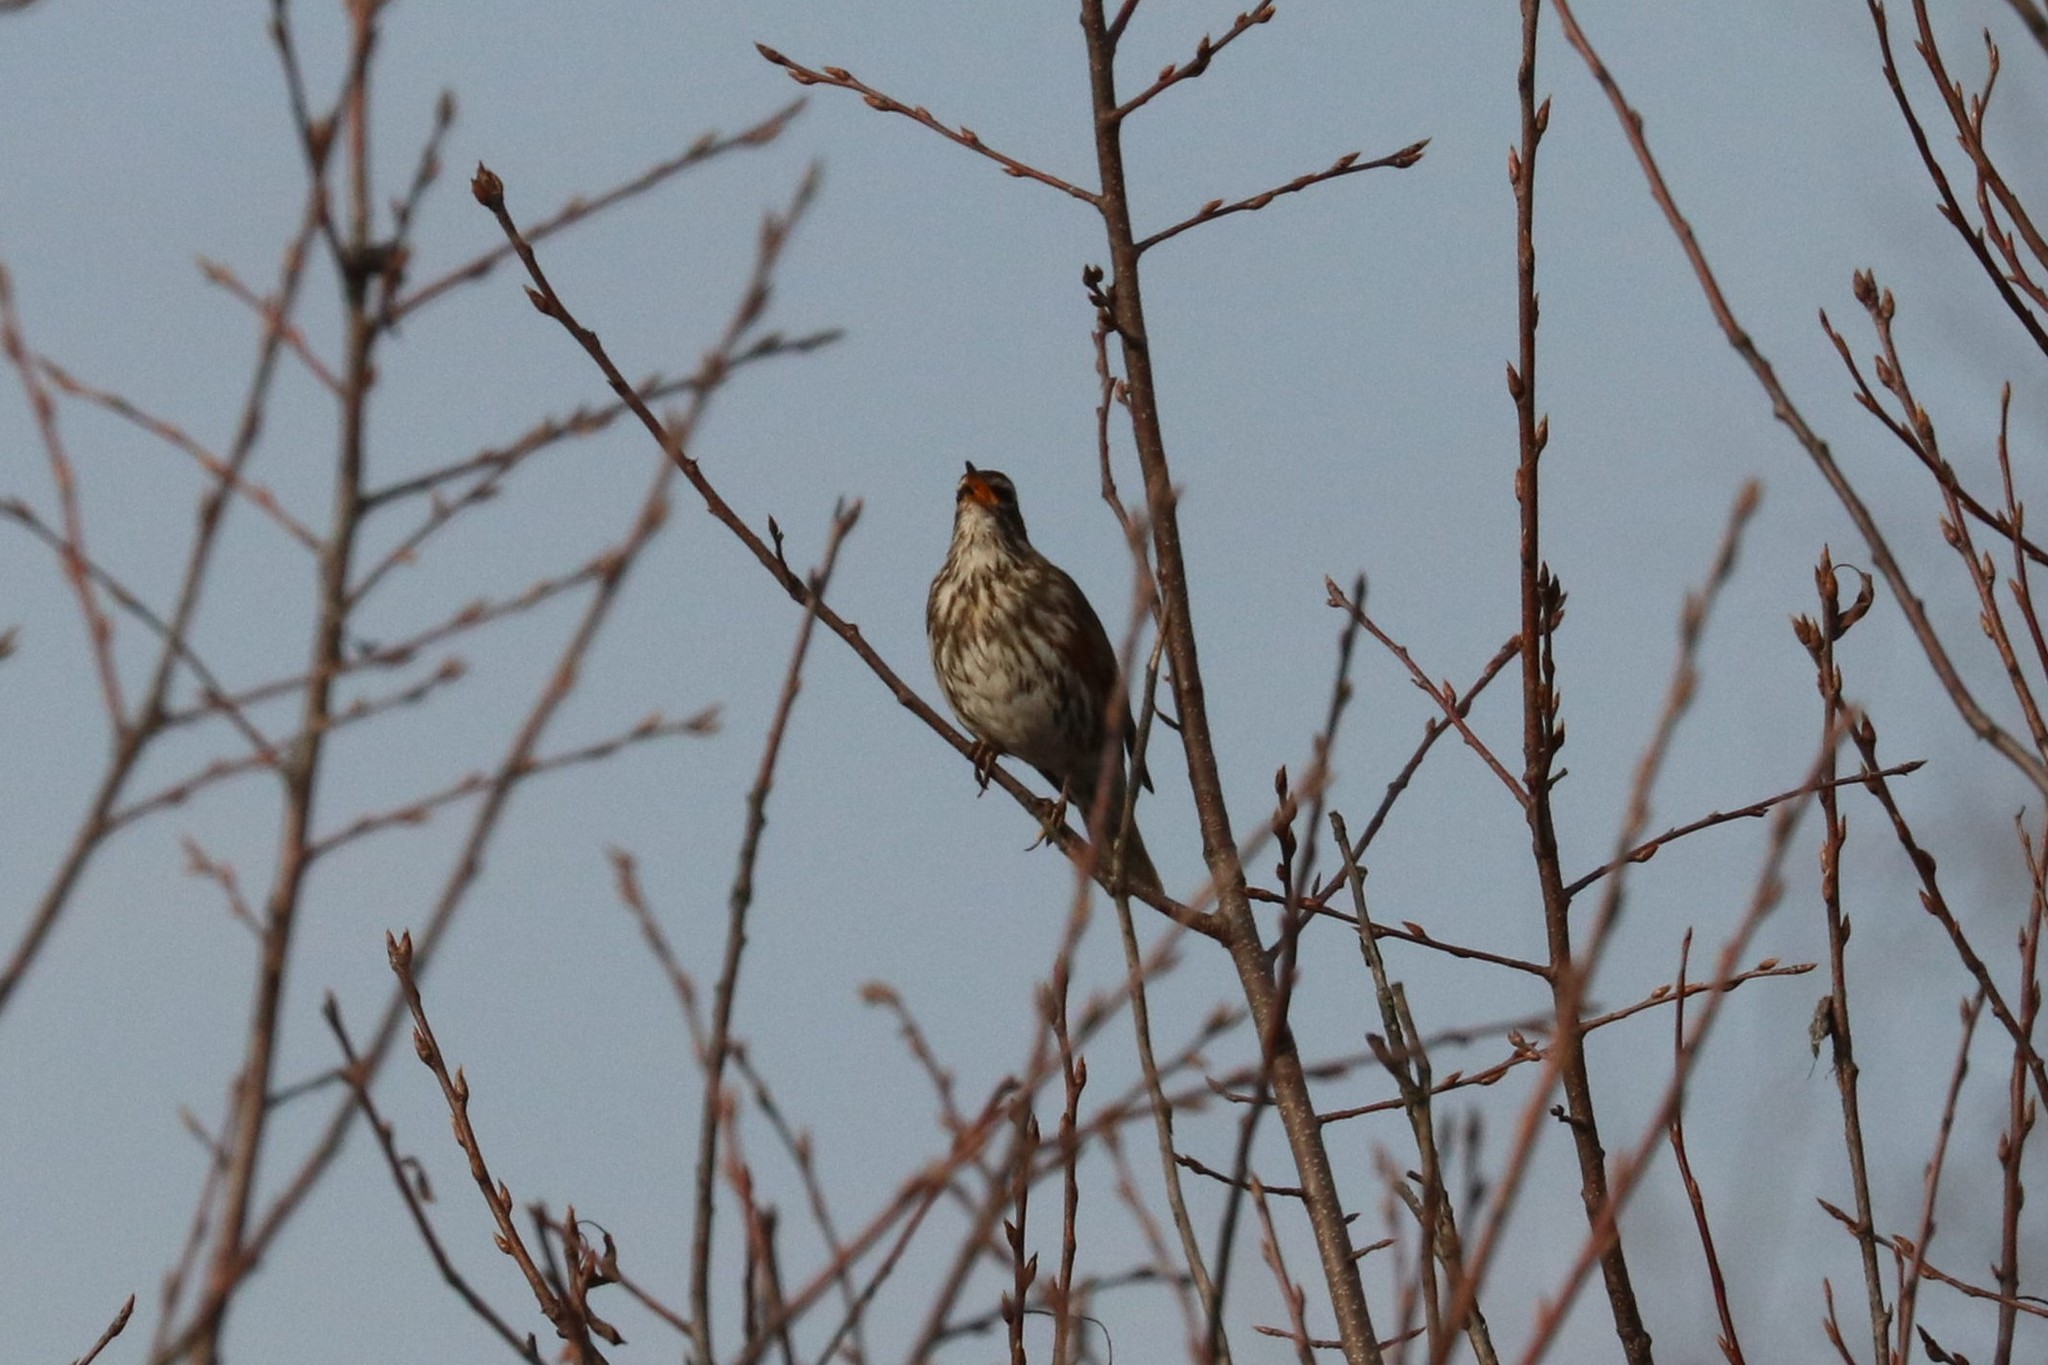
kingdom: Animalia
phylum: Chordata
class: Aves
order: Passeriformes
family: Turdidae
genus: Turdus
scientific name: Turdus iliacus
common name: Redwing
